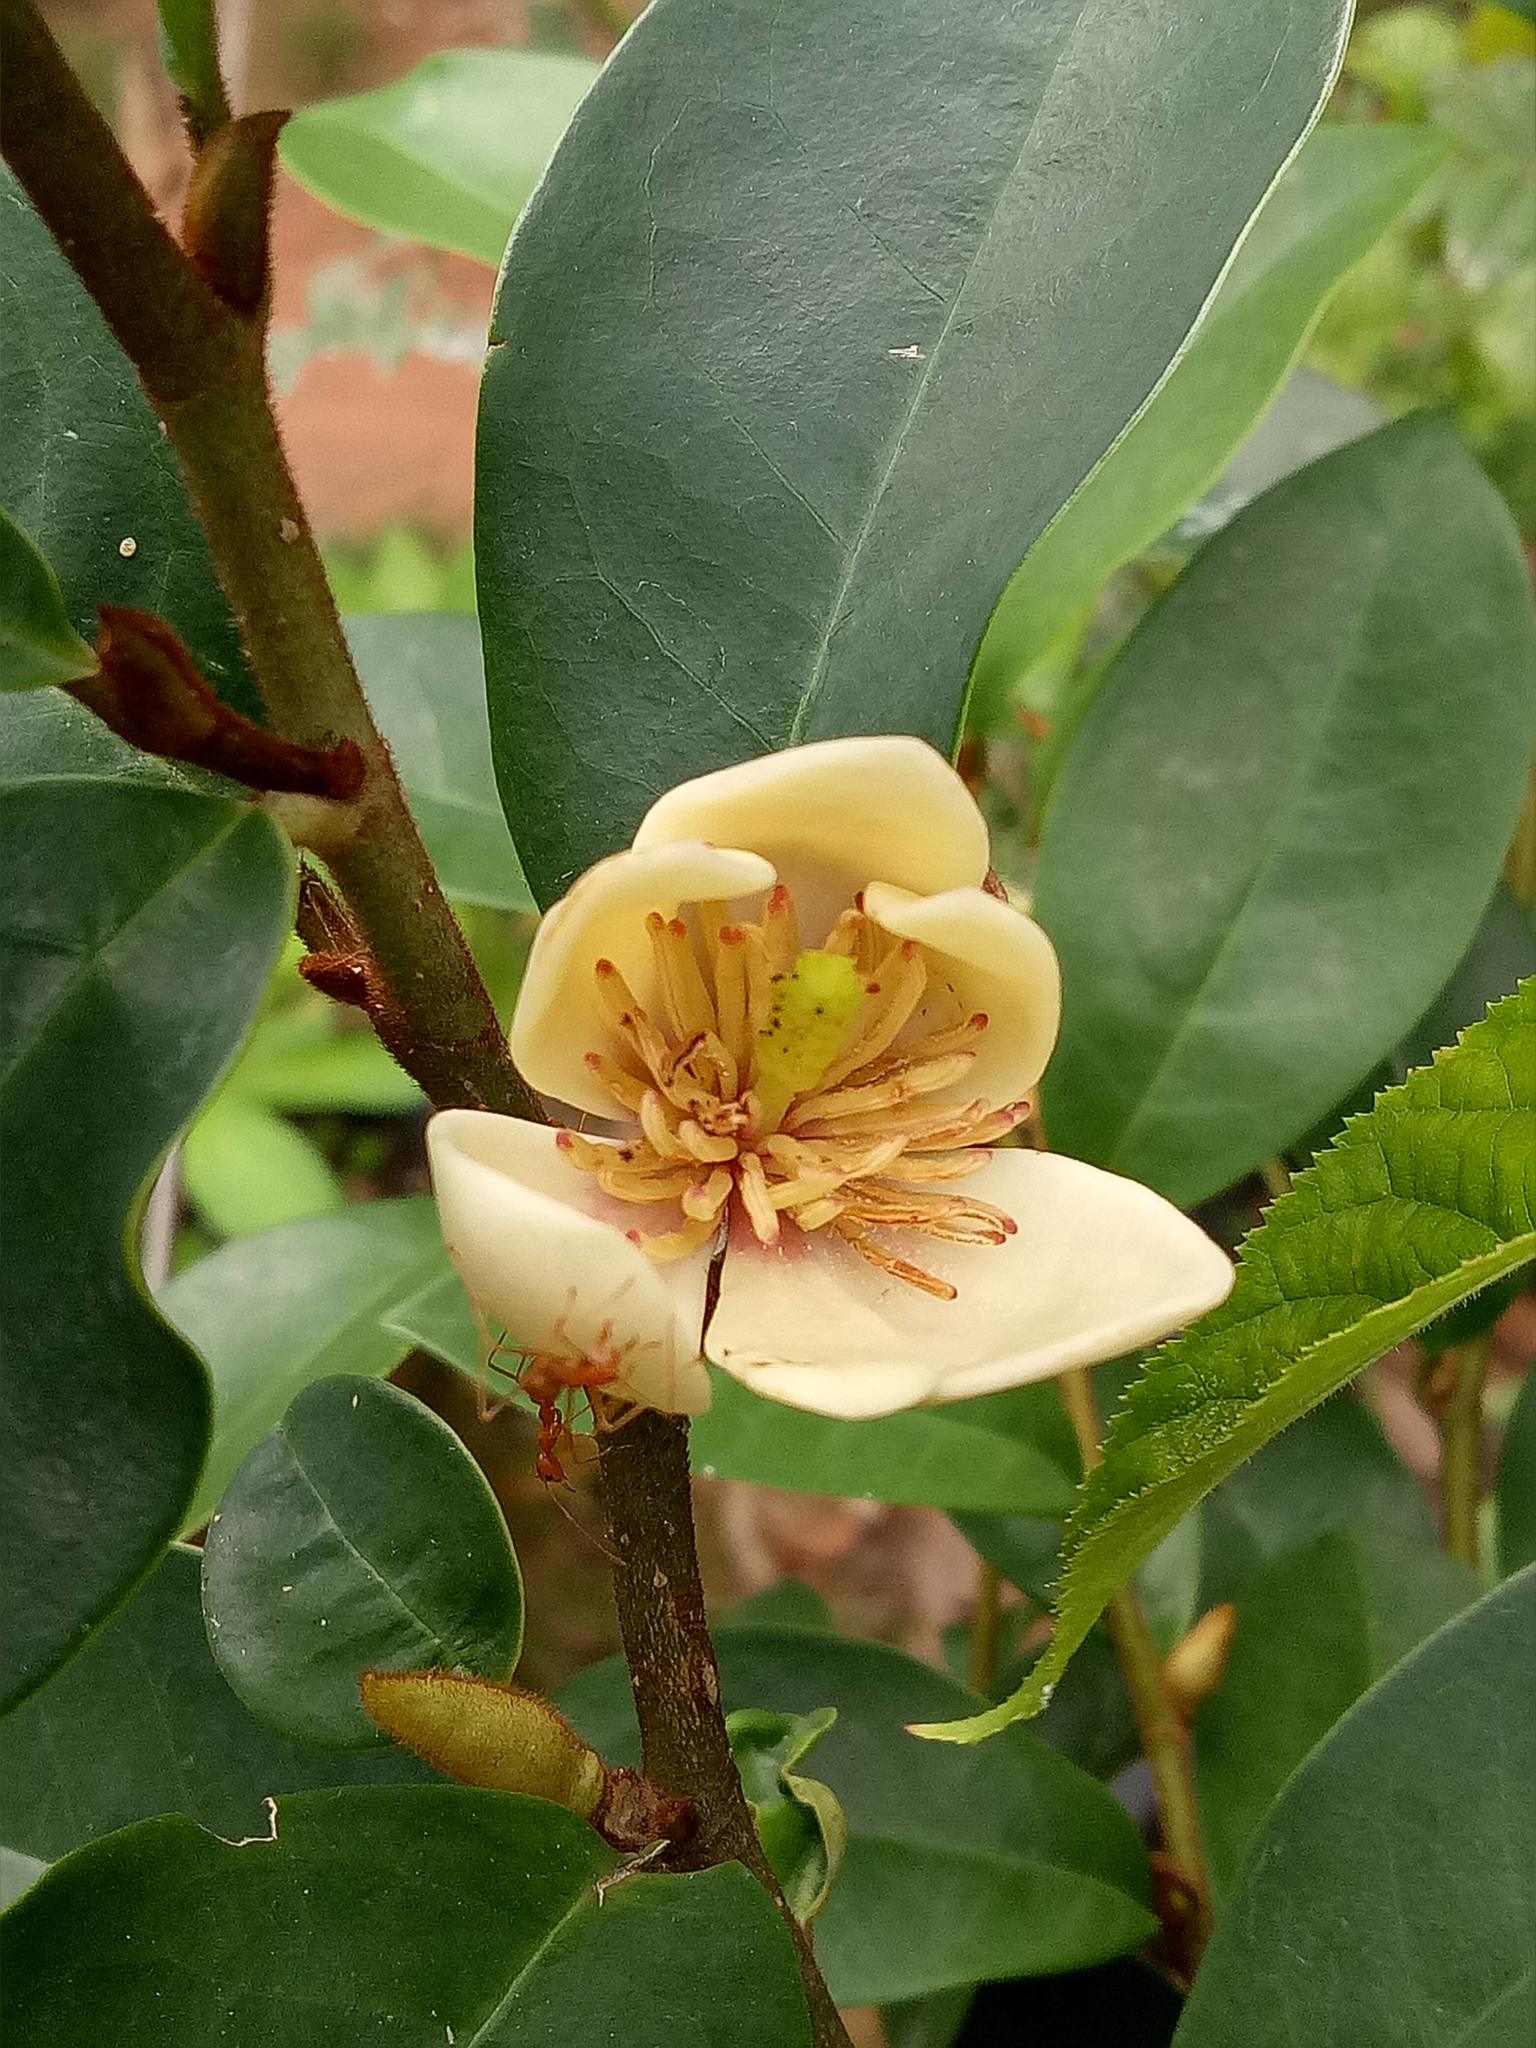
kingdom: Animalia
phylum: Arthropoda
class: Insecta
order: Hymenoptera
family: Formicidae
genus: Oecophylla
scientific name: Oecophylla smaragdina
